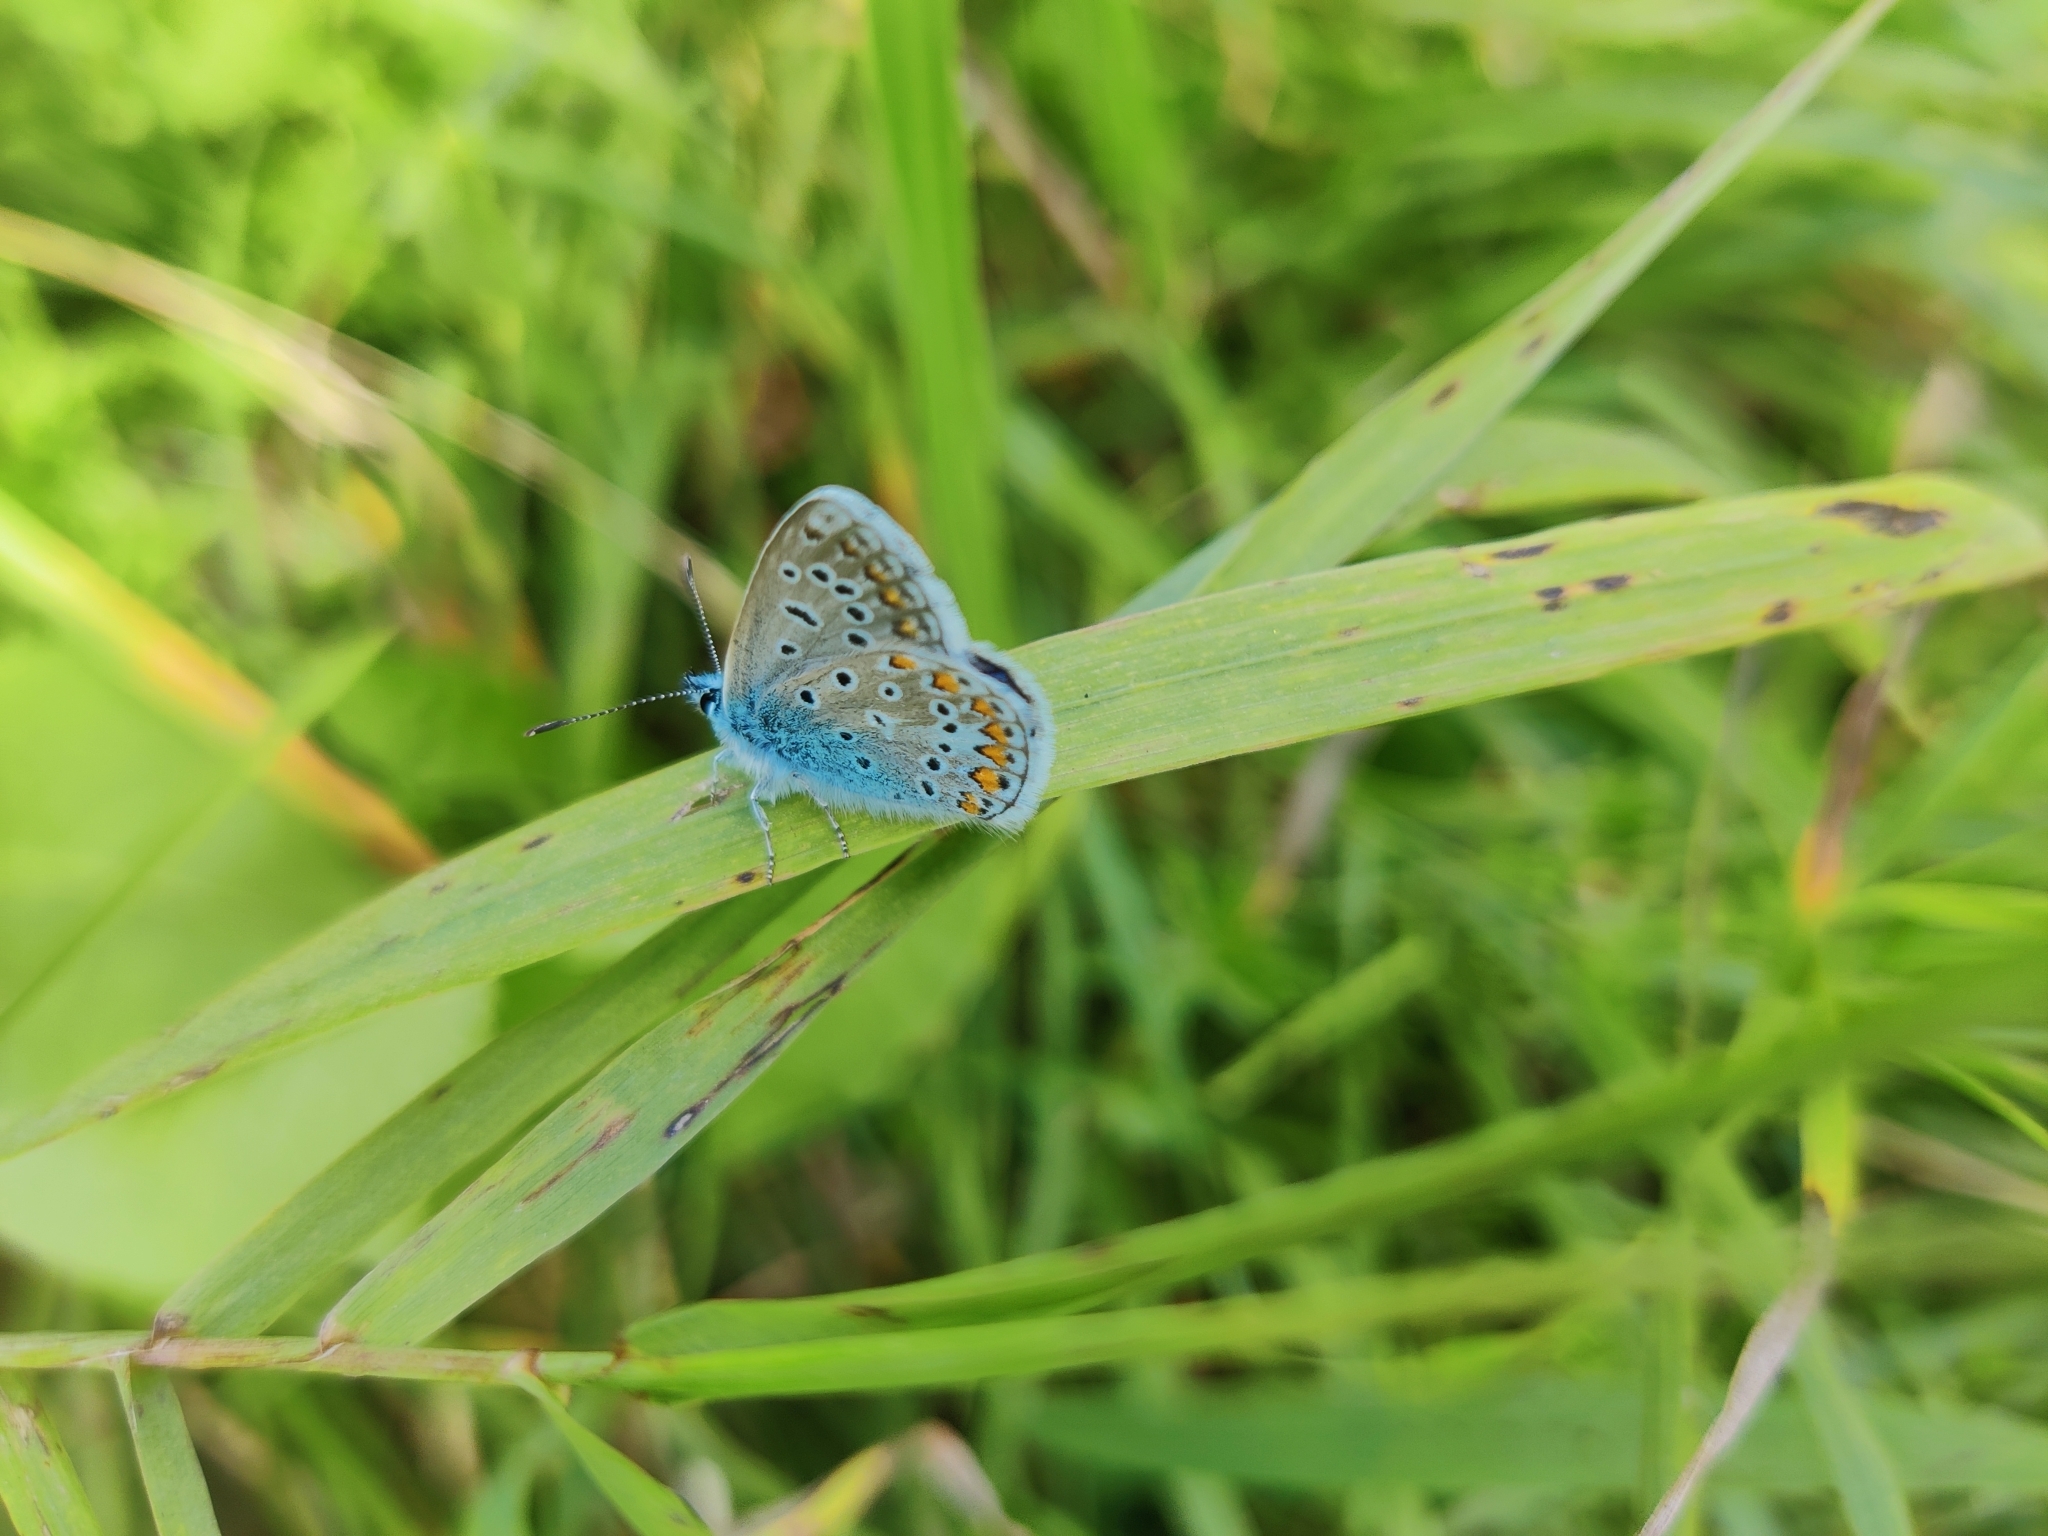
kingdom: Animalia
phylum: Arthropoda
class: Insecta
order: Lepidoptera
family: Lycaenidae
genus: Polyommatus
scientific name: Polyommatus icarus
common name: Common blue
